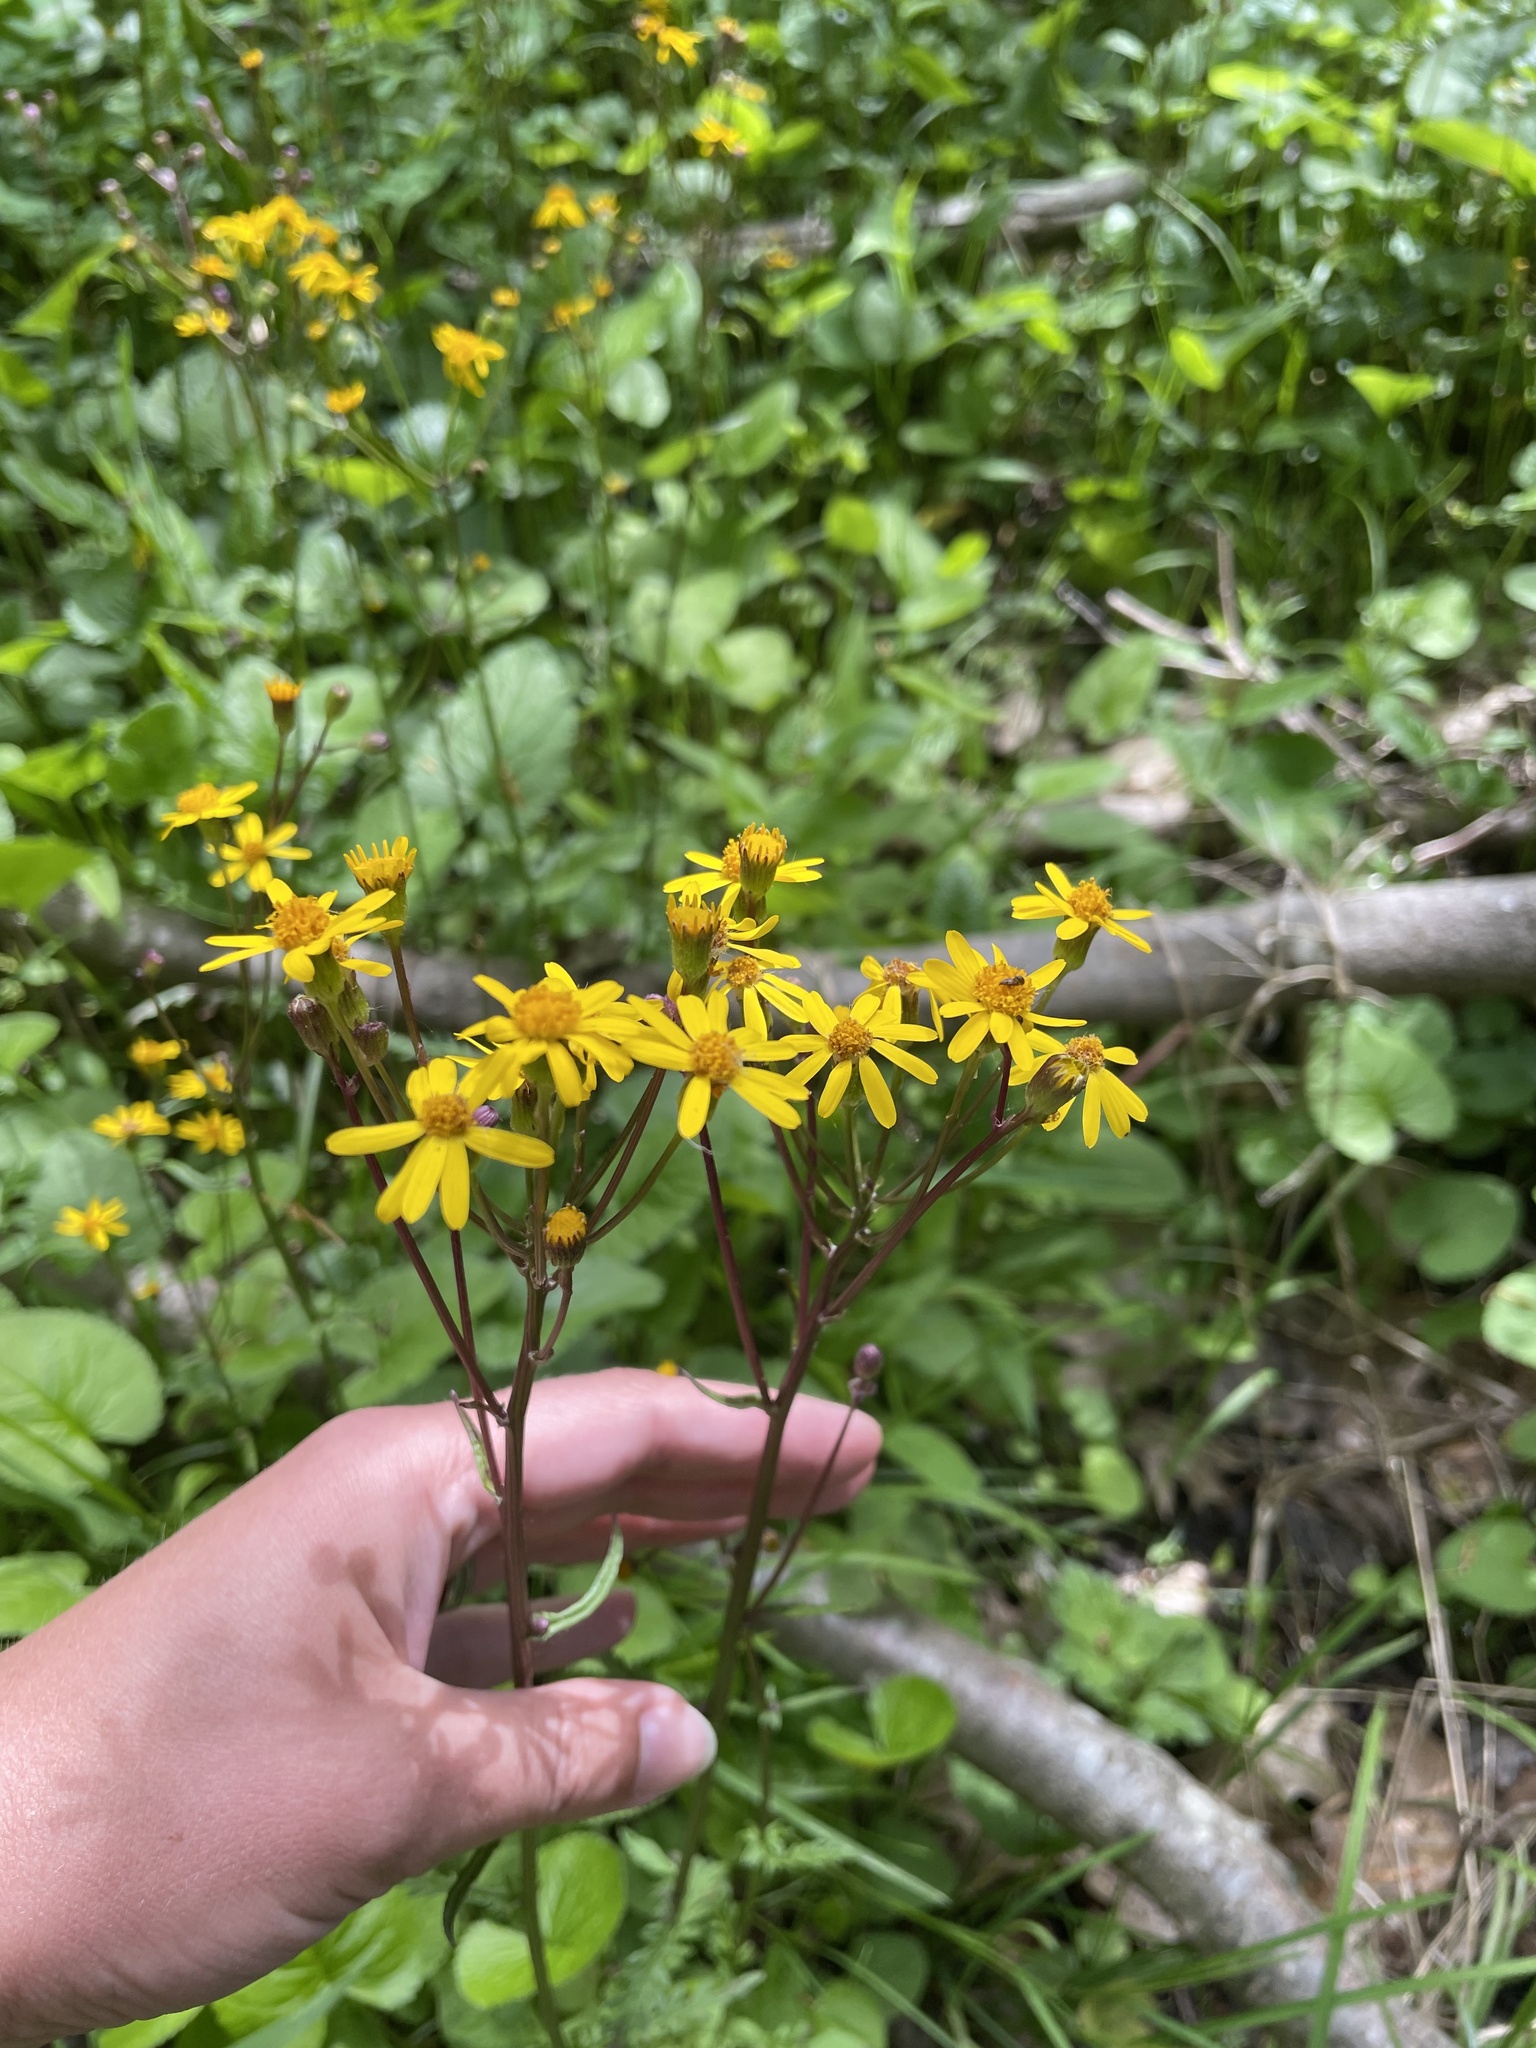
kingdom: Plantae
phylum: Tracheophyta
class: Magnoliopsida
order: Asterales
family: Asteraceae
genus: Packera
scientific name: Packera aurea
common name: Golden groundsel
